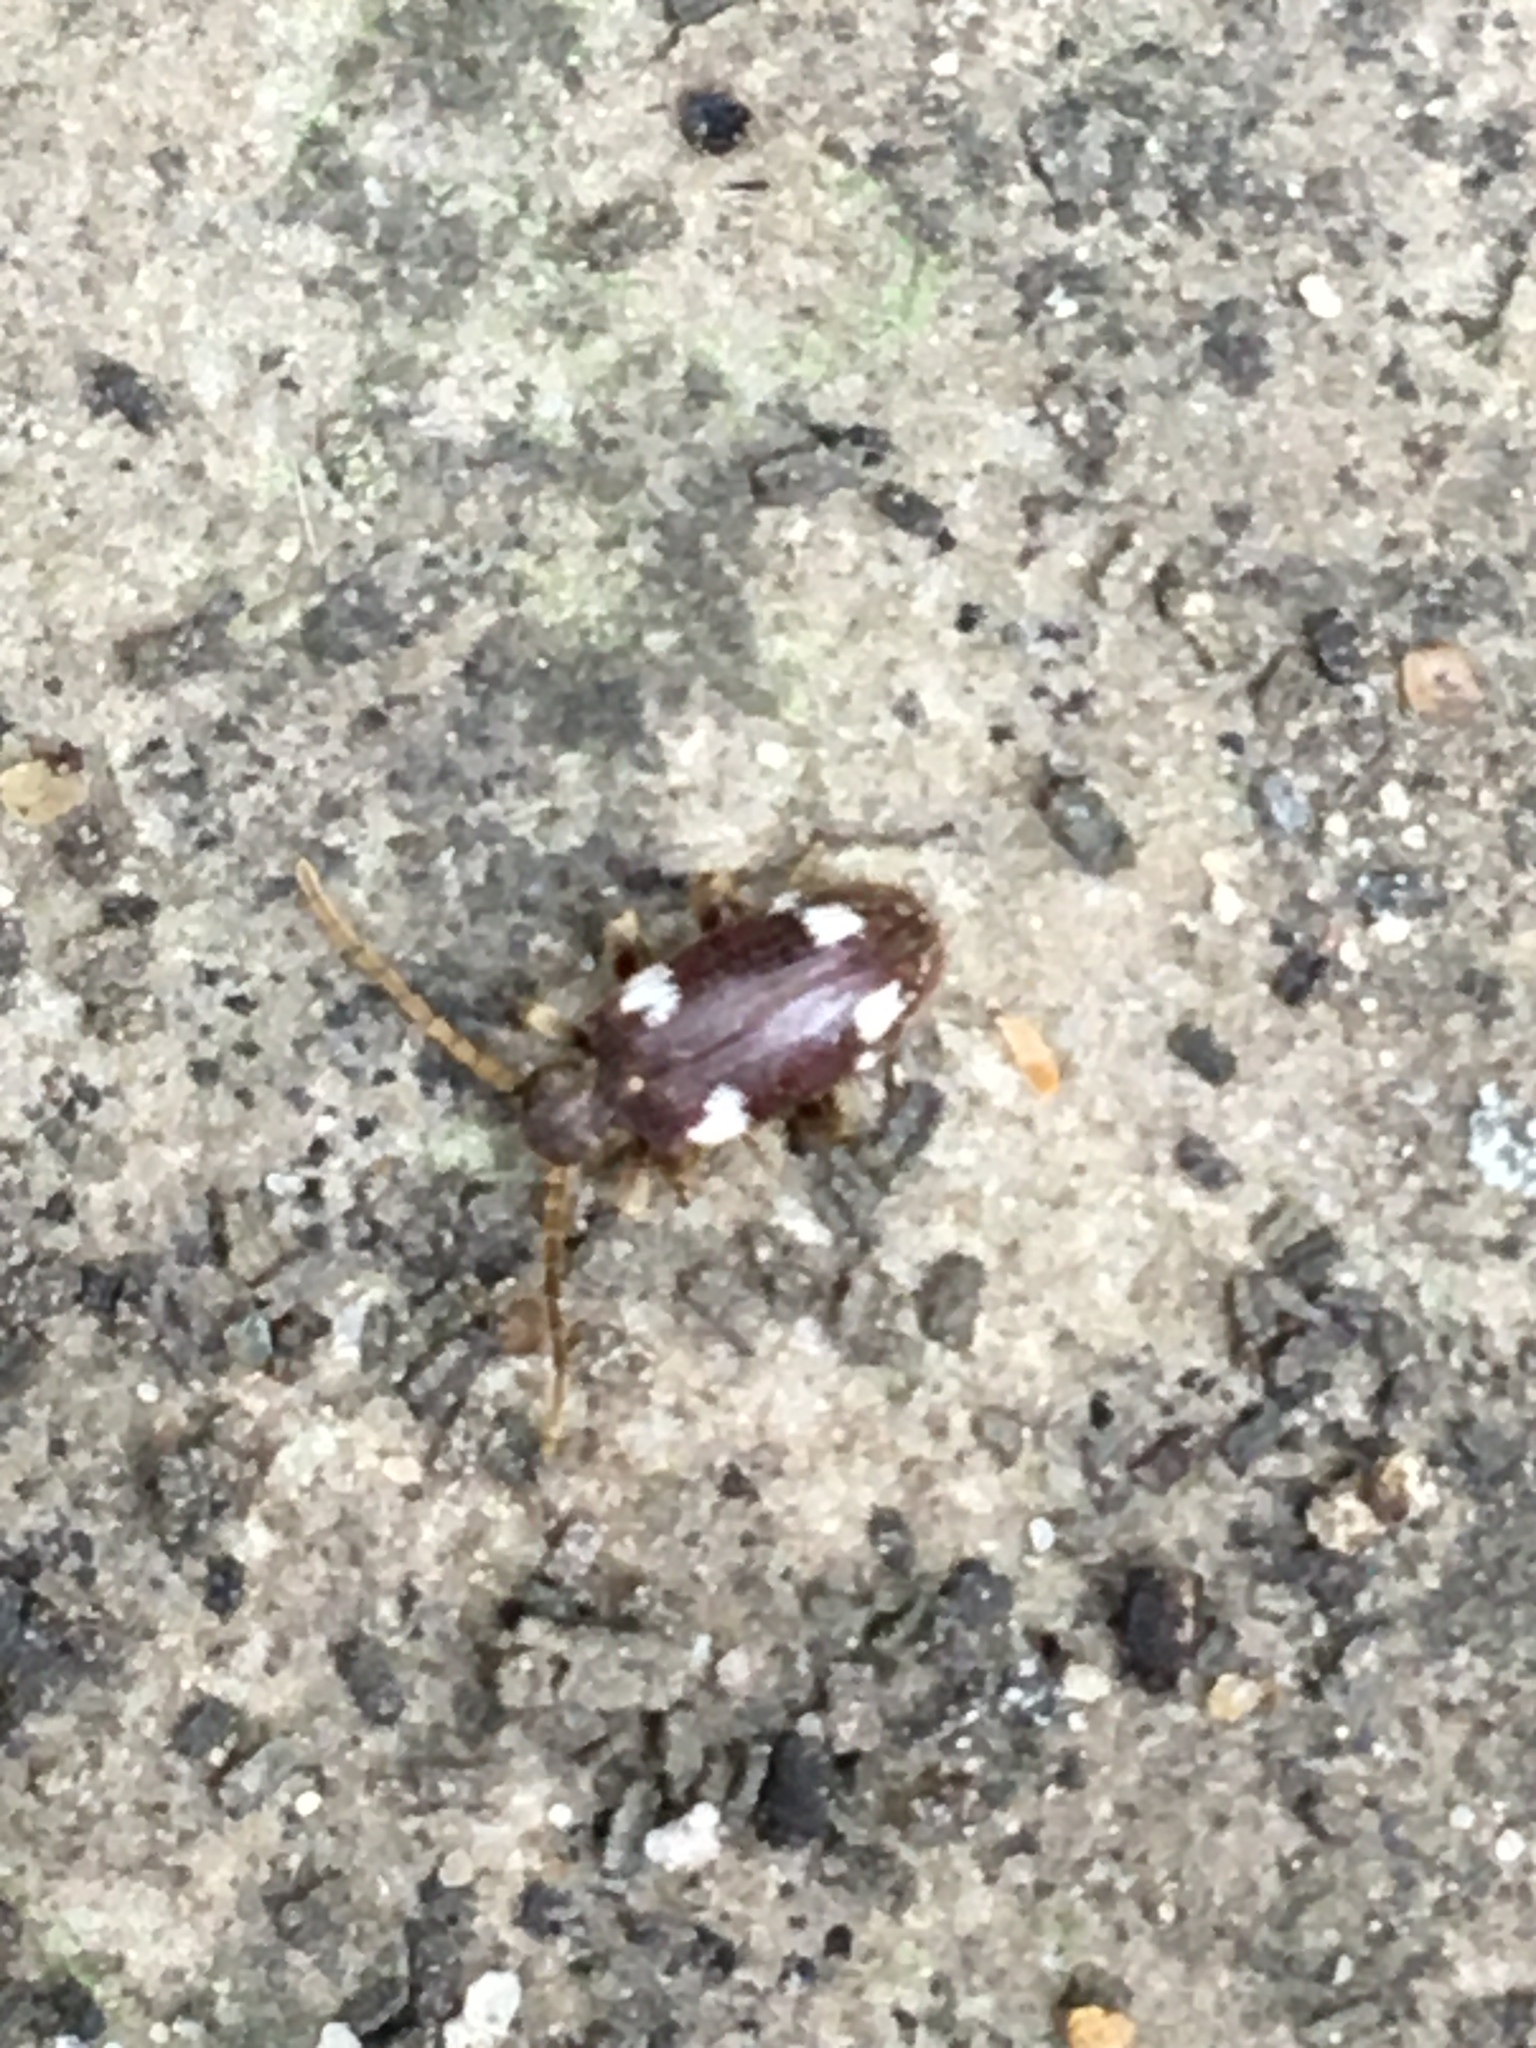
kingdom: Animalia
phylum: Arthropoda
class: Insecta
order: Coleoptera
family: Ptinidae
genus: Ptinus
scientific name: Ptinus sexpunctatus
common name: Six-spotted spider beetle
